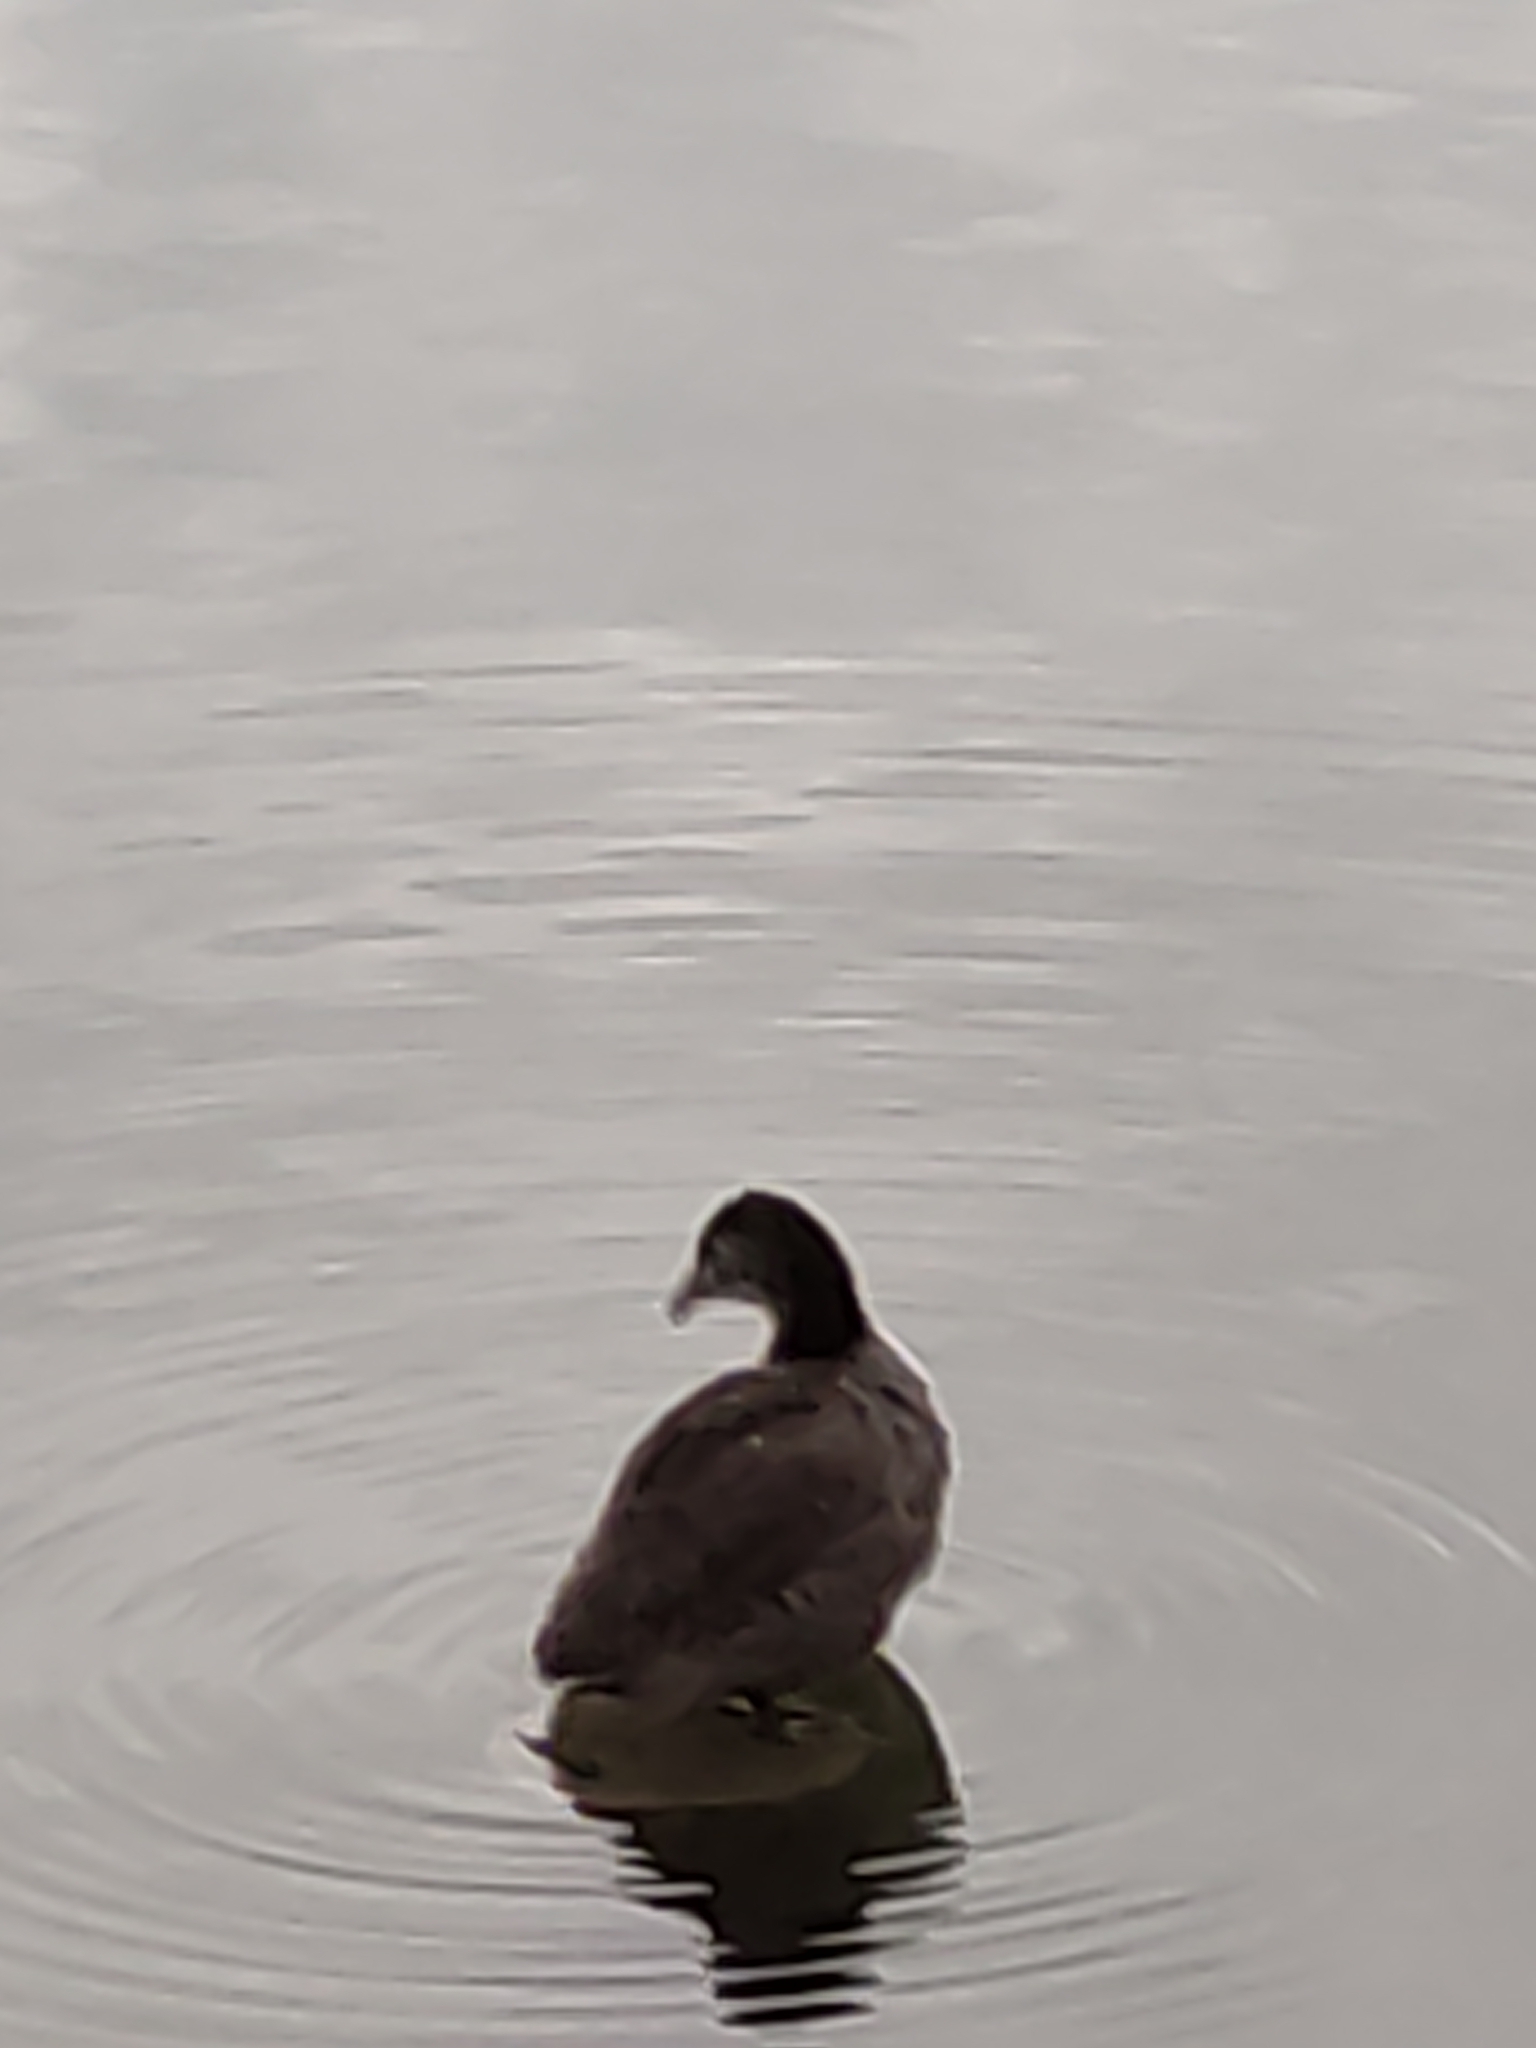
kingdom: Animalia
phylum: Chordata
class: Aves
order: Gruiformes
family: Rallidae
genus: Fulica
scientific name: Fulica atra
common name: Eurasian coot
